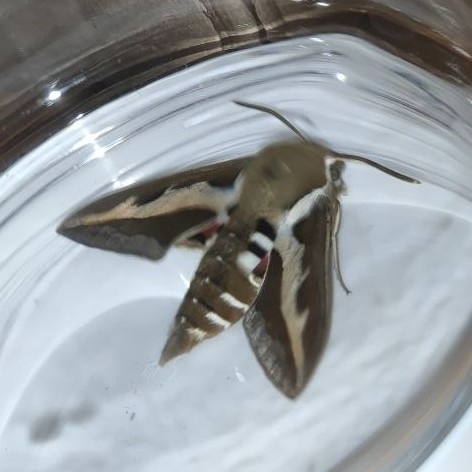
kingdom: Animalia
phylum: Arthropoda
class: Insecta
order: Lepidoptera
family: Sphingidae
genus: Hyles
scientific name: Hyles gallii
